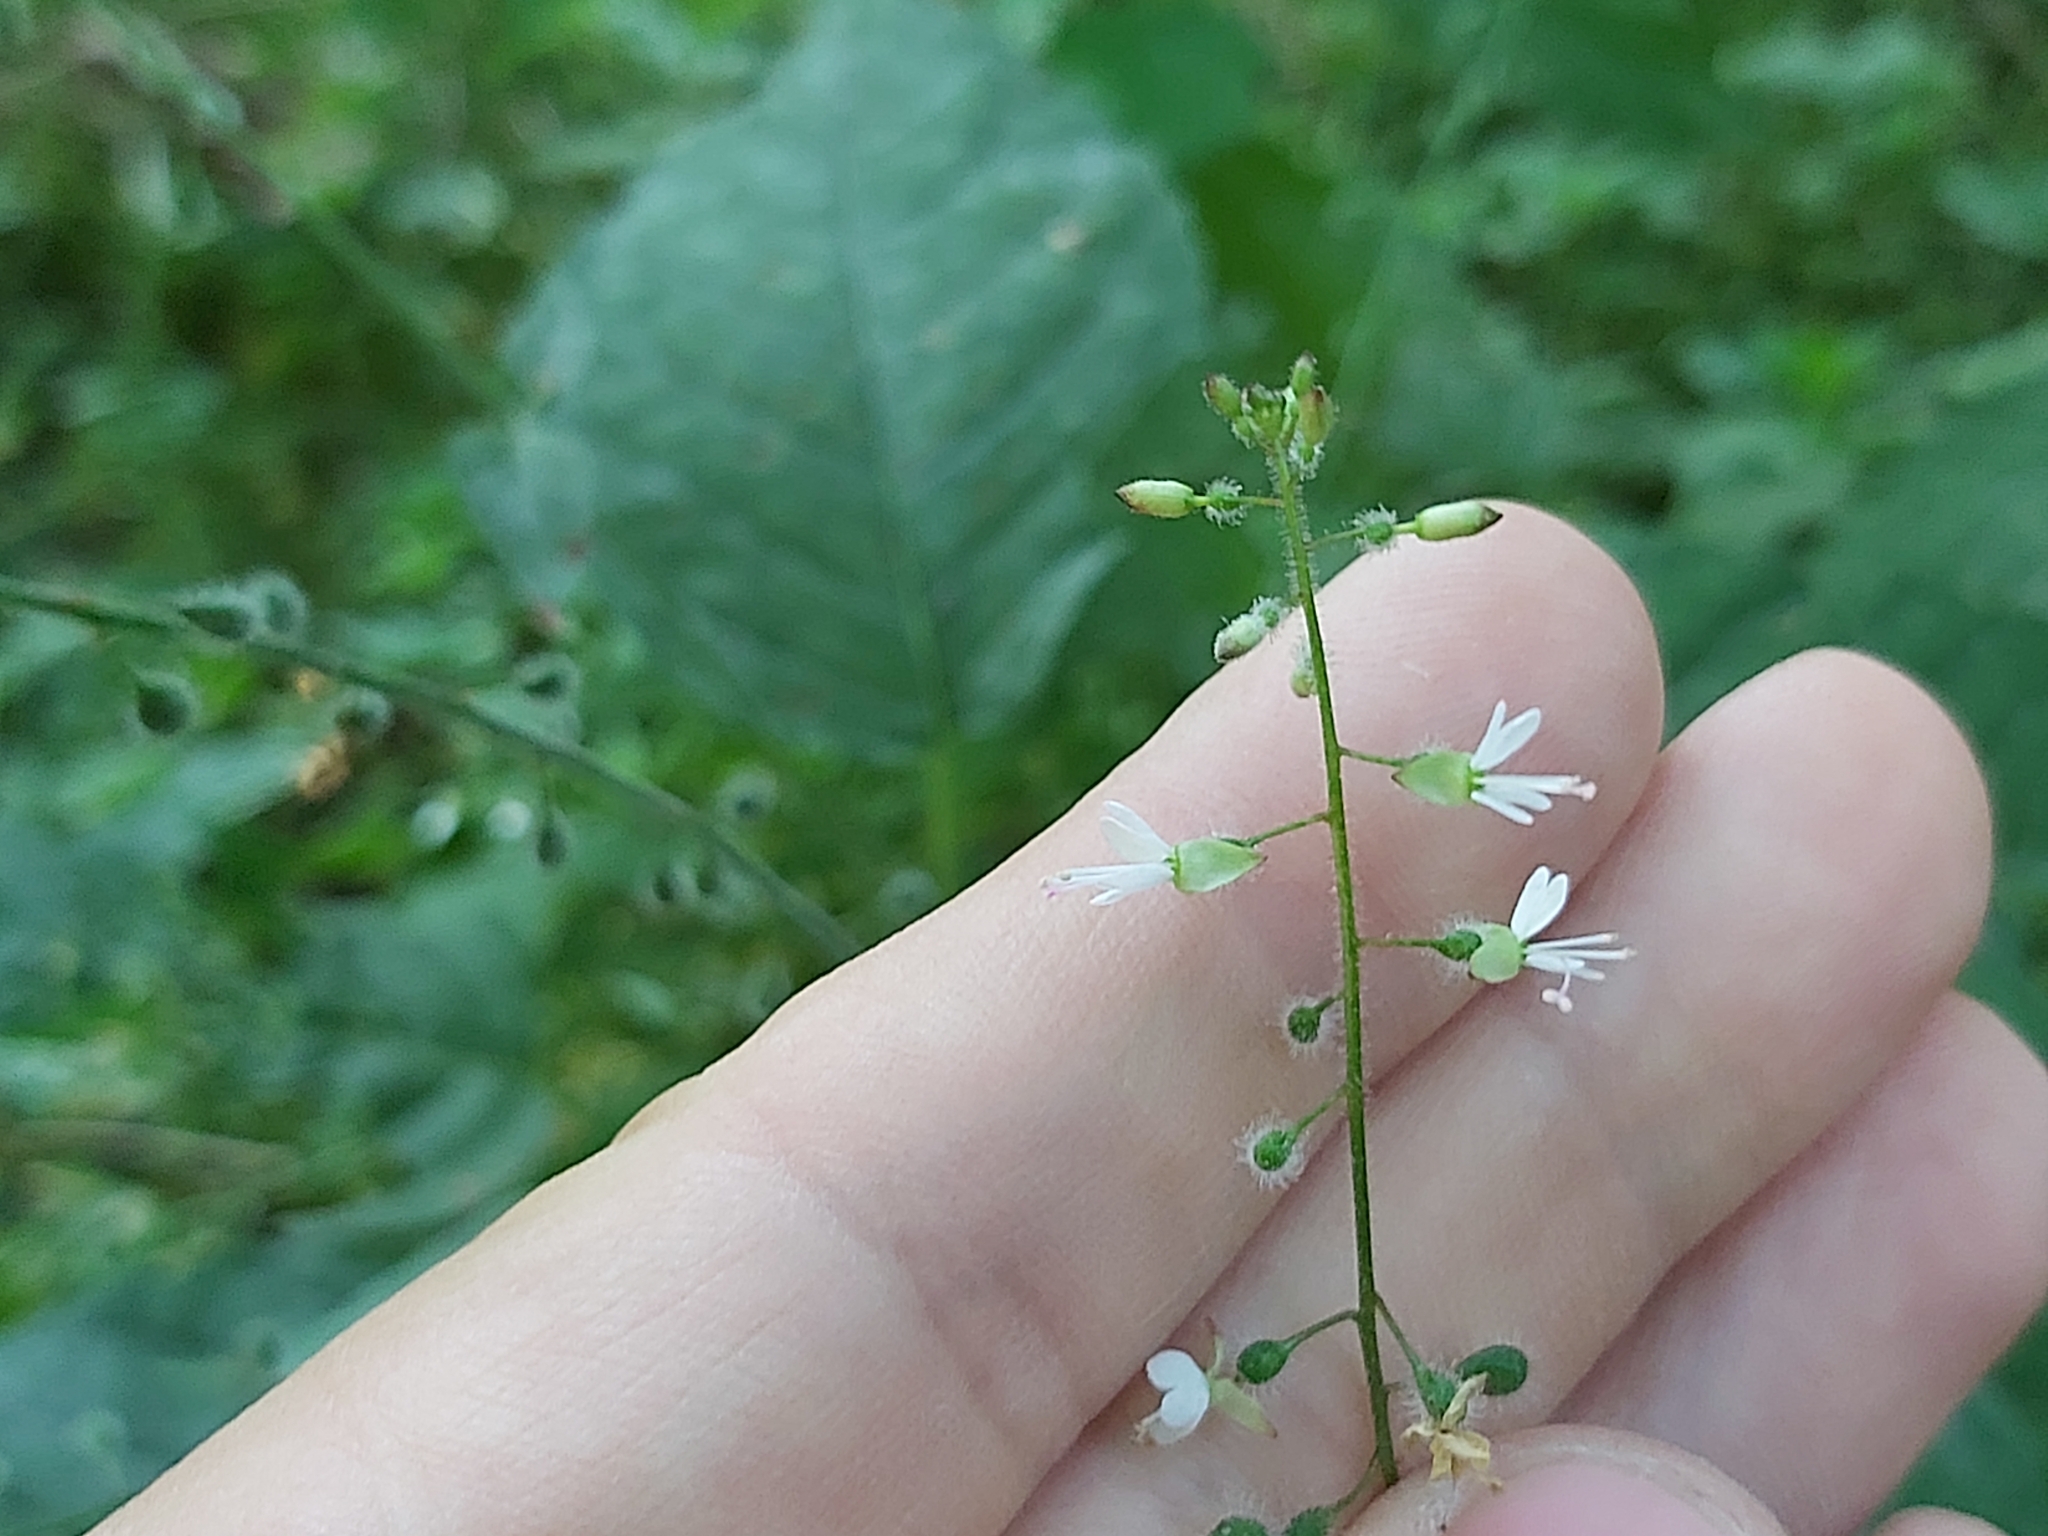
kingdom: Plantae
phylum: Tracheophyta
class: Magnoliopsida
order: Myrtales
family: Onagraceae
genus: Circaea
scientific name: Circaea lutetiana
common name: Enchanter's-nightshade
